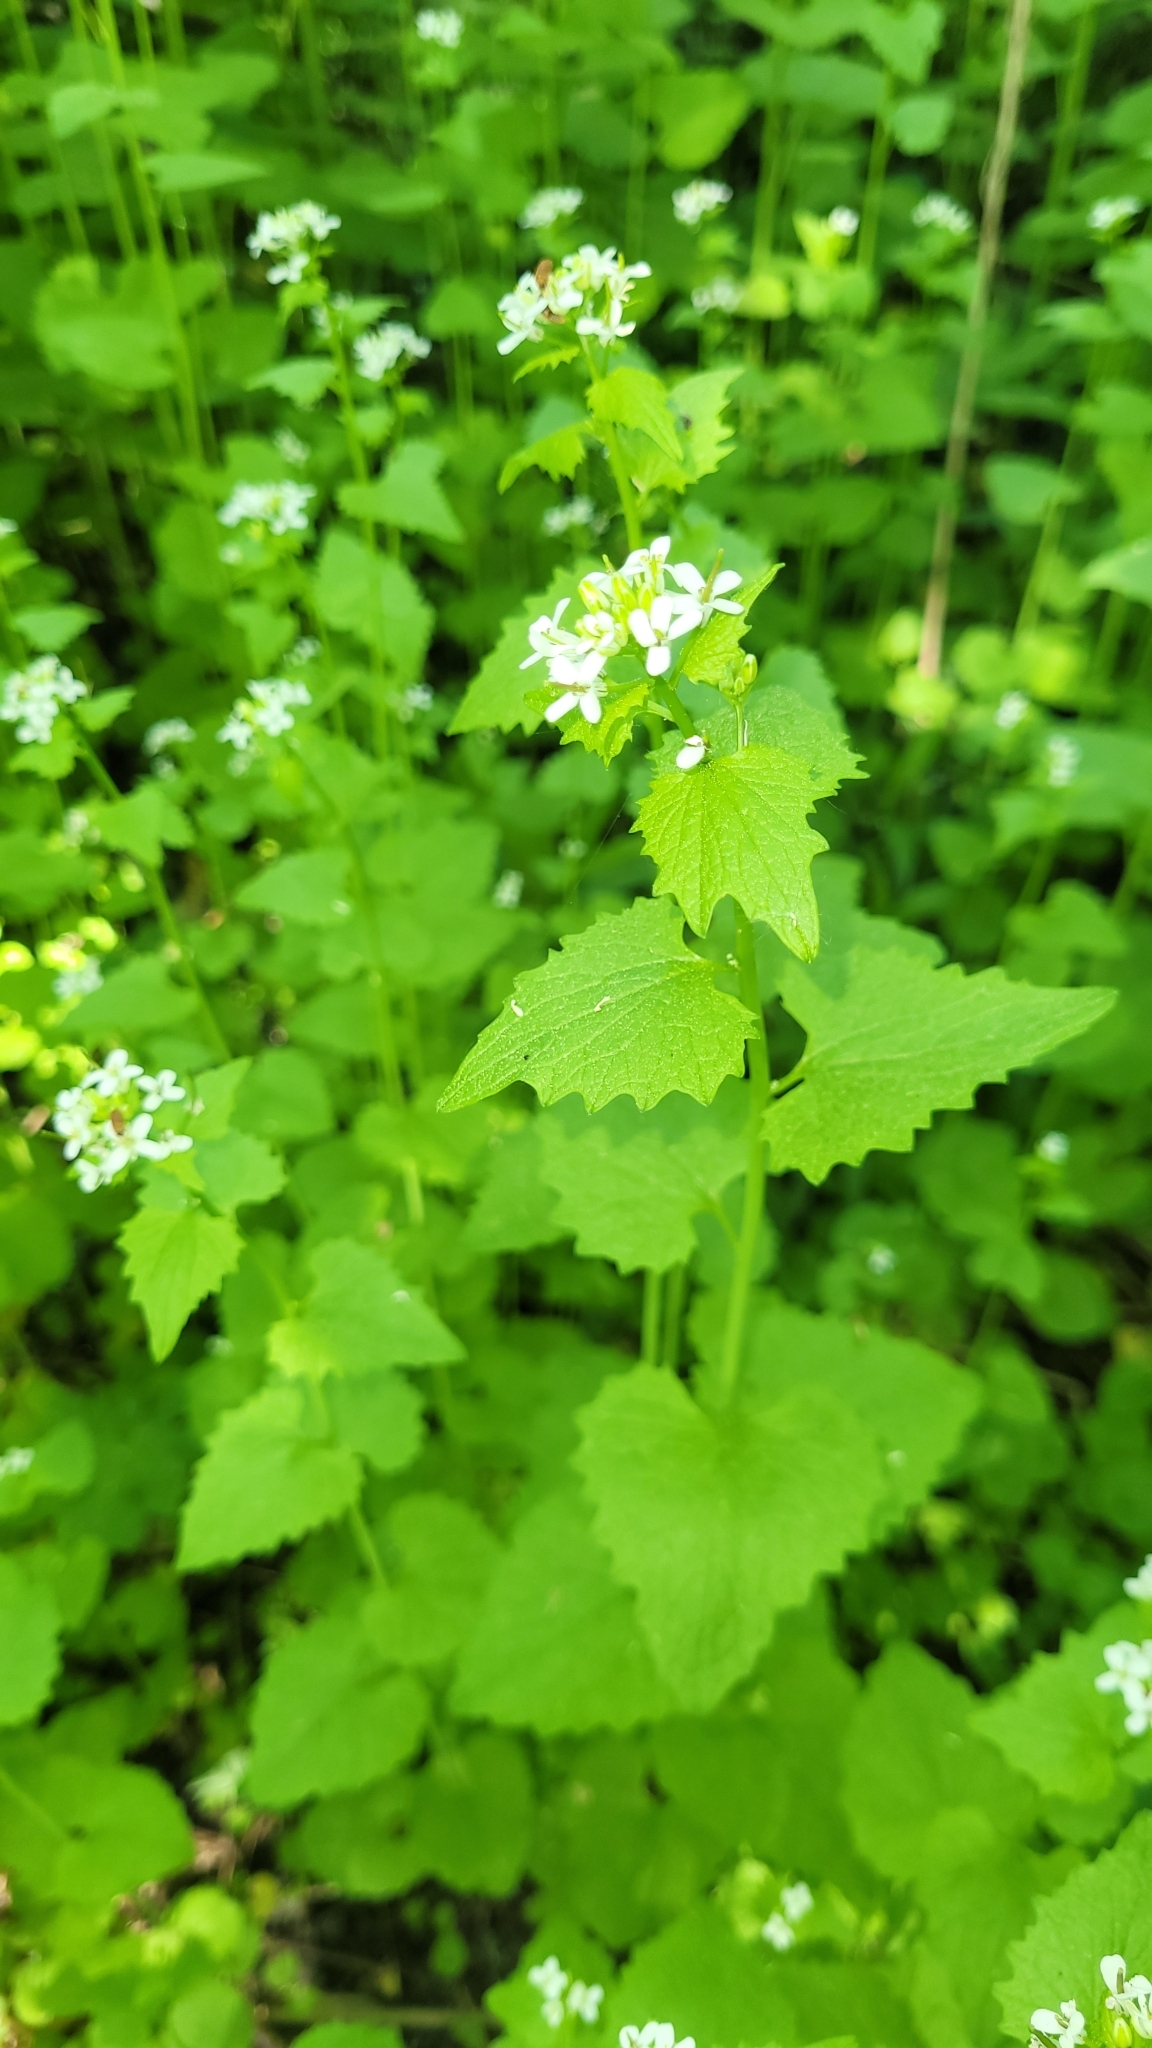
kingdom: Plantae
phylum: Tracheophyta
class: Magnoliopsida
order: Brassicales
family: Brassicaceae
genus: Alliaria
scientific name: Alliaria petiolata
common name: Garlic mustard
